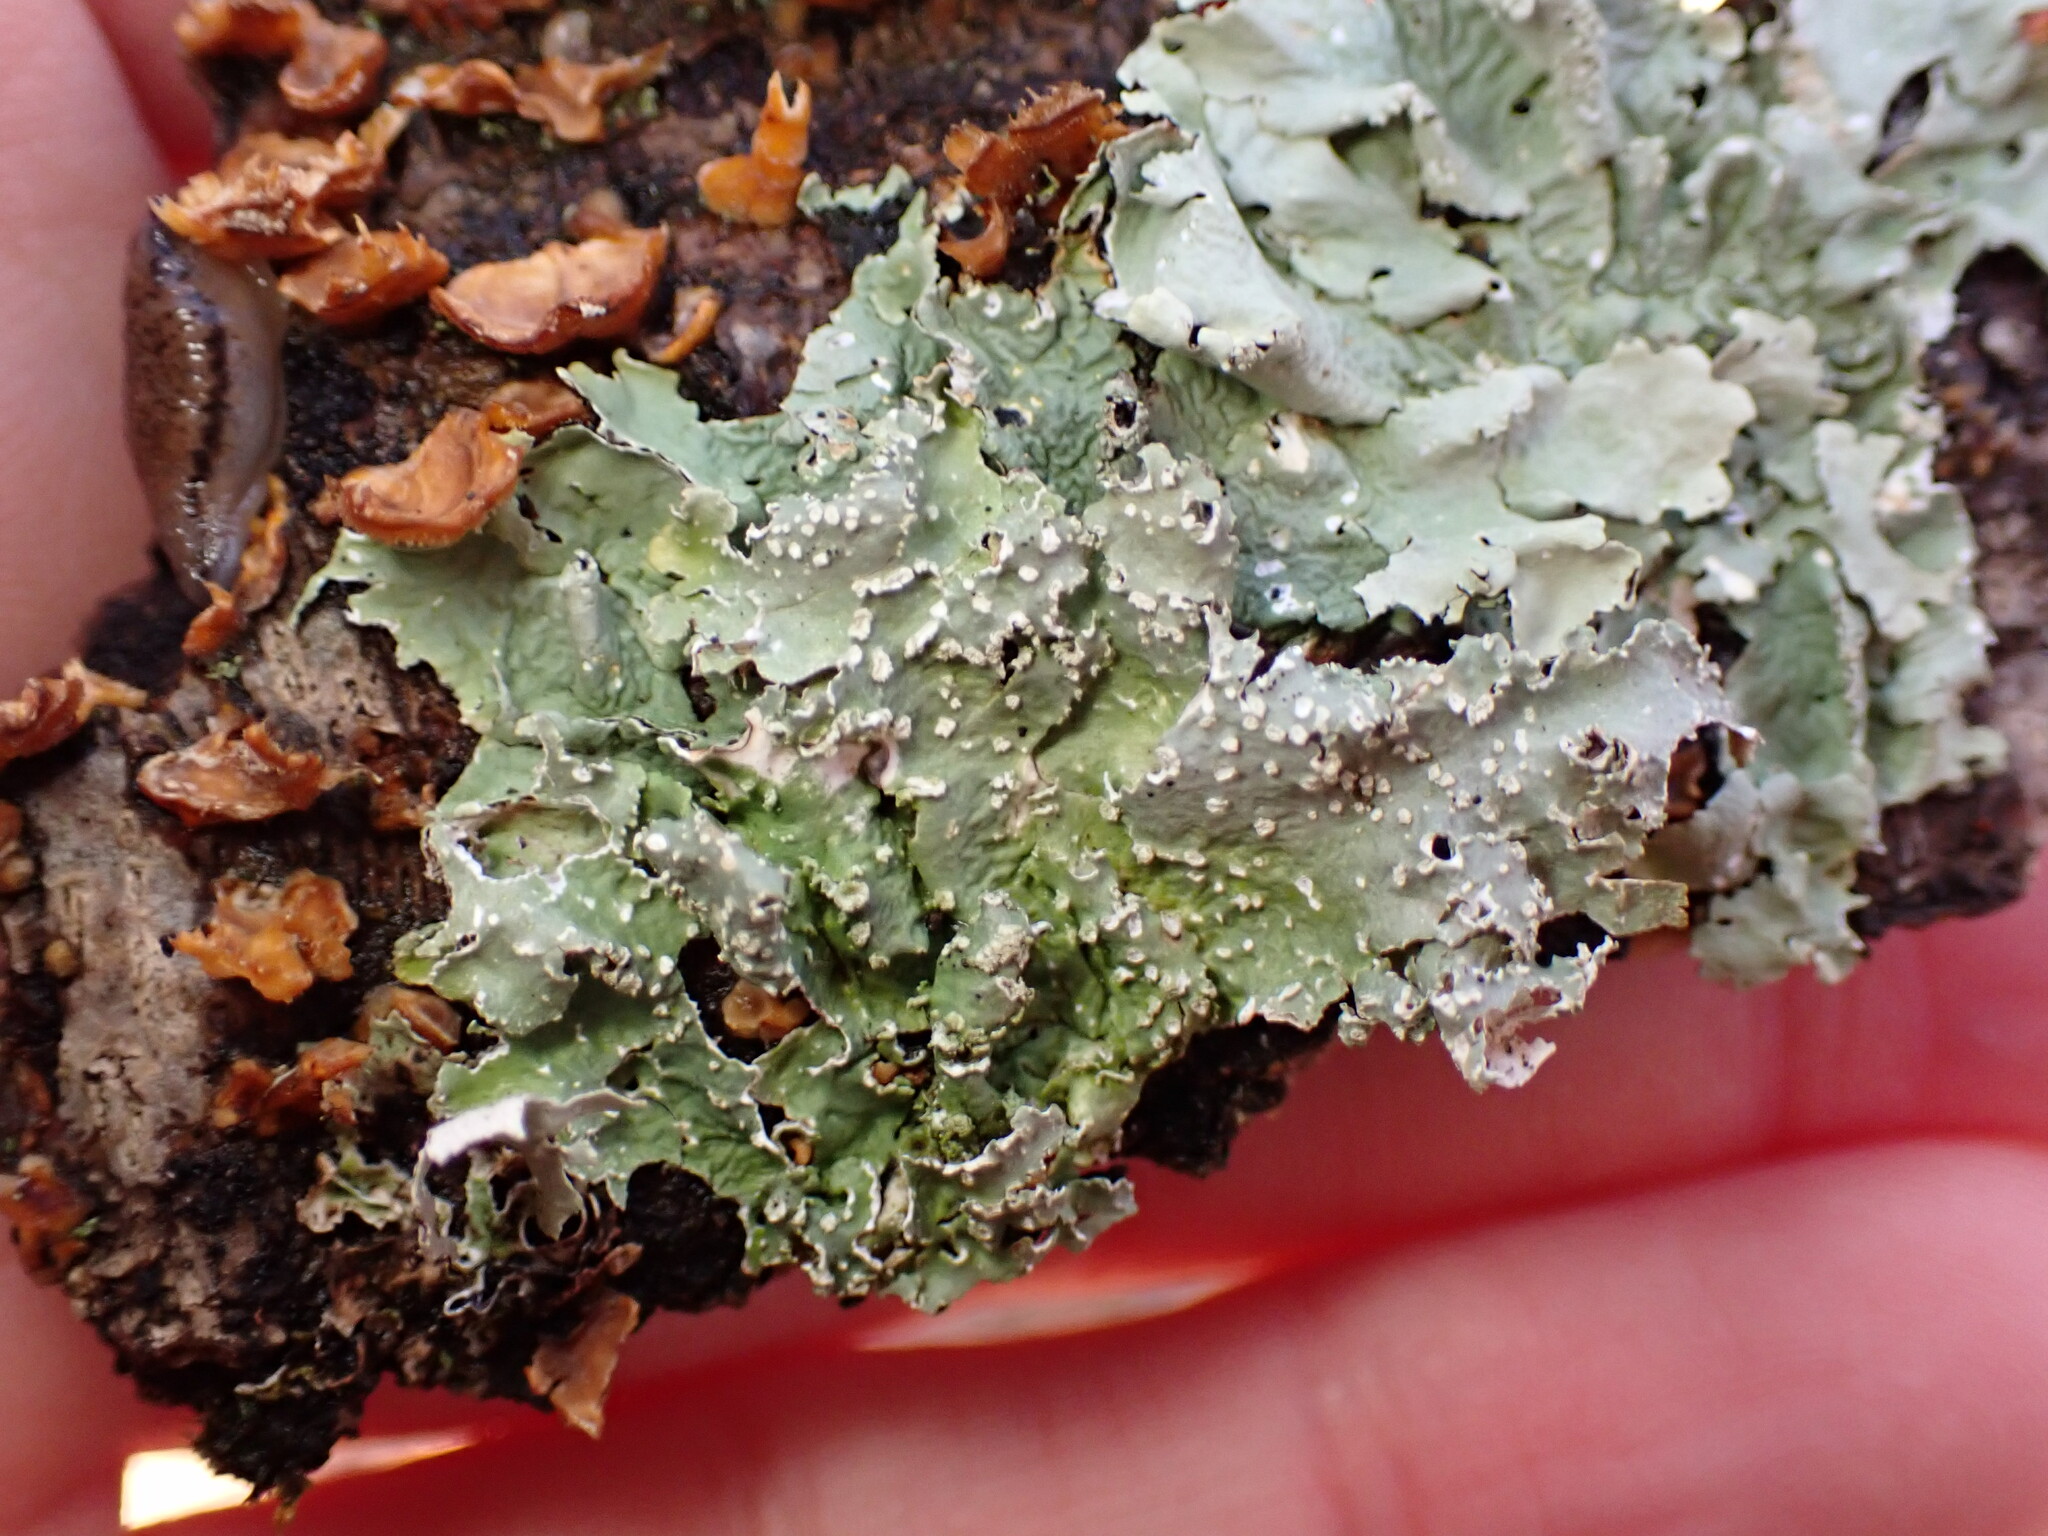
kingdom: Fungi
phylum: Ascomycota
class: Lecanoromycetes
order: Lecanorales
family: Parmeliaceae
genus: Punctelia
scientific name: Punctelia caseana
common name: Moondust speckled lichen
